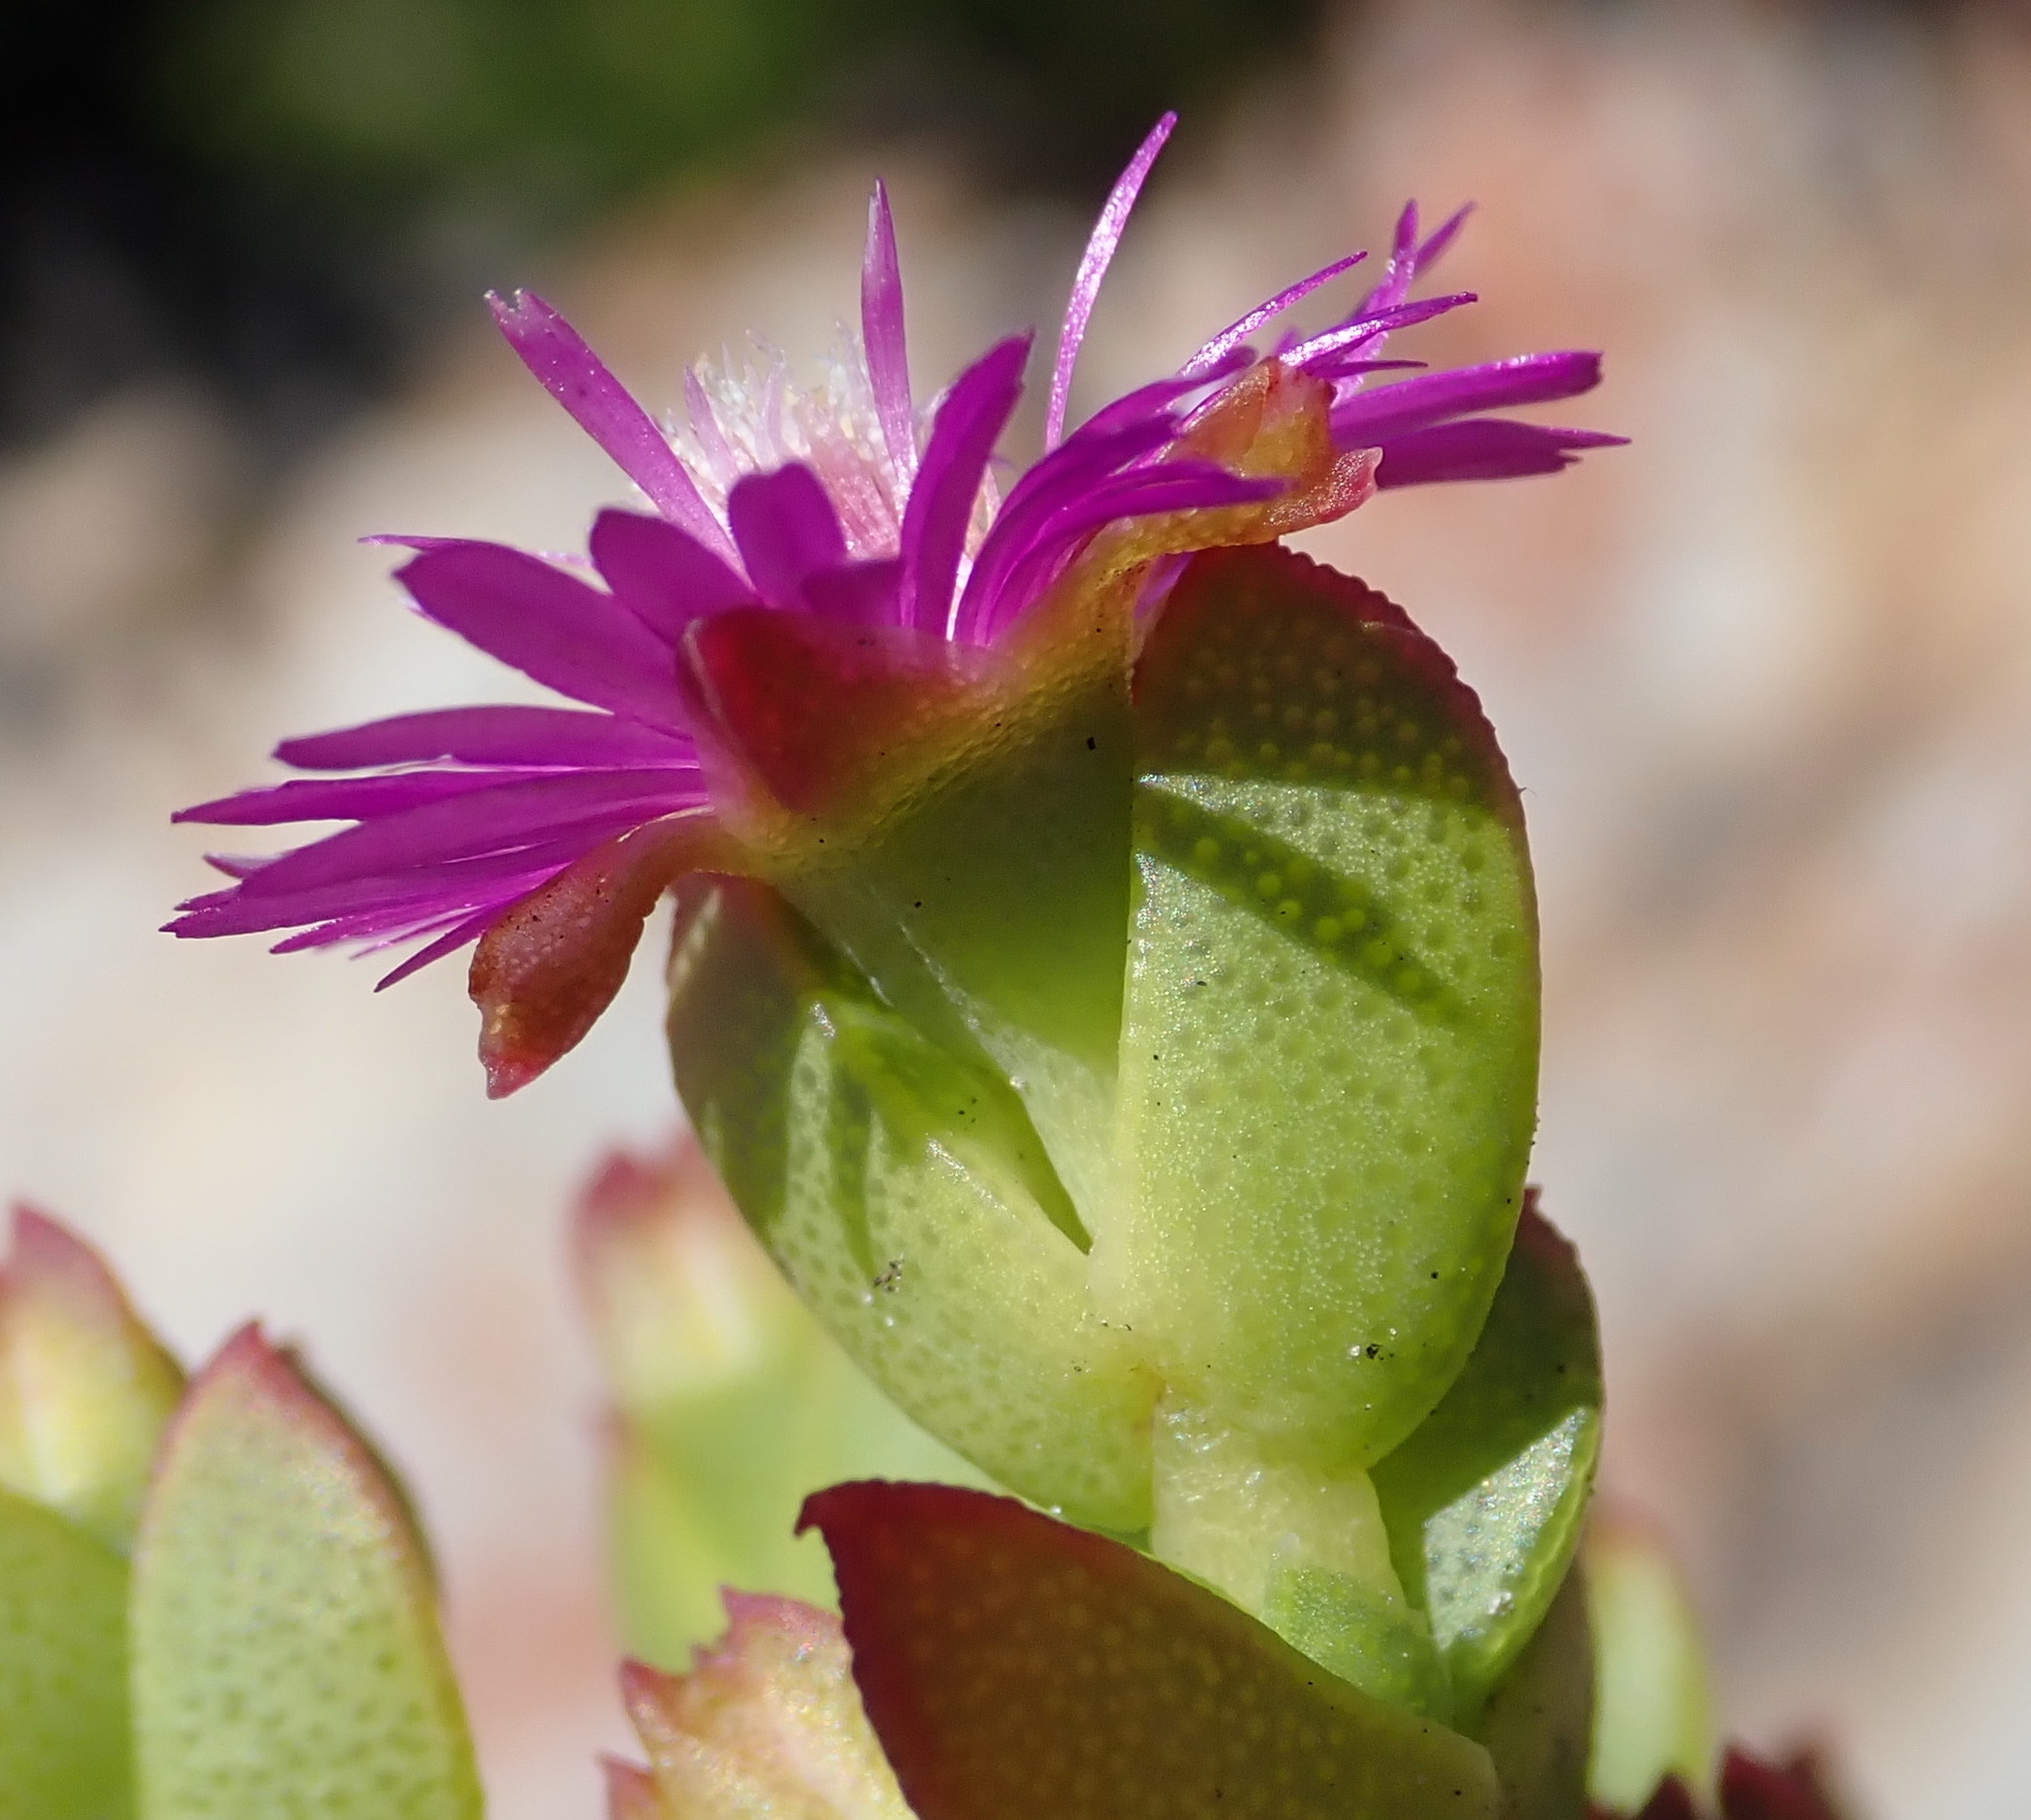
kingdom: Plantae
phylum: Tracheophyta
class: Magnoliopsida
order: Caryophyllales
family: Aizoaceae
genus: Ruschia
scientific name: Ruschia cymbifolia
